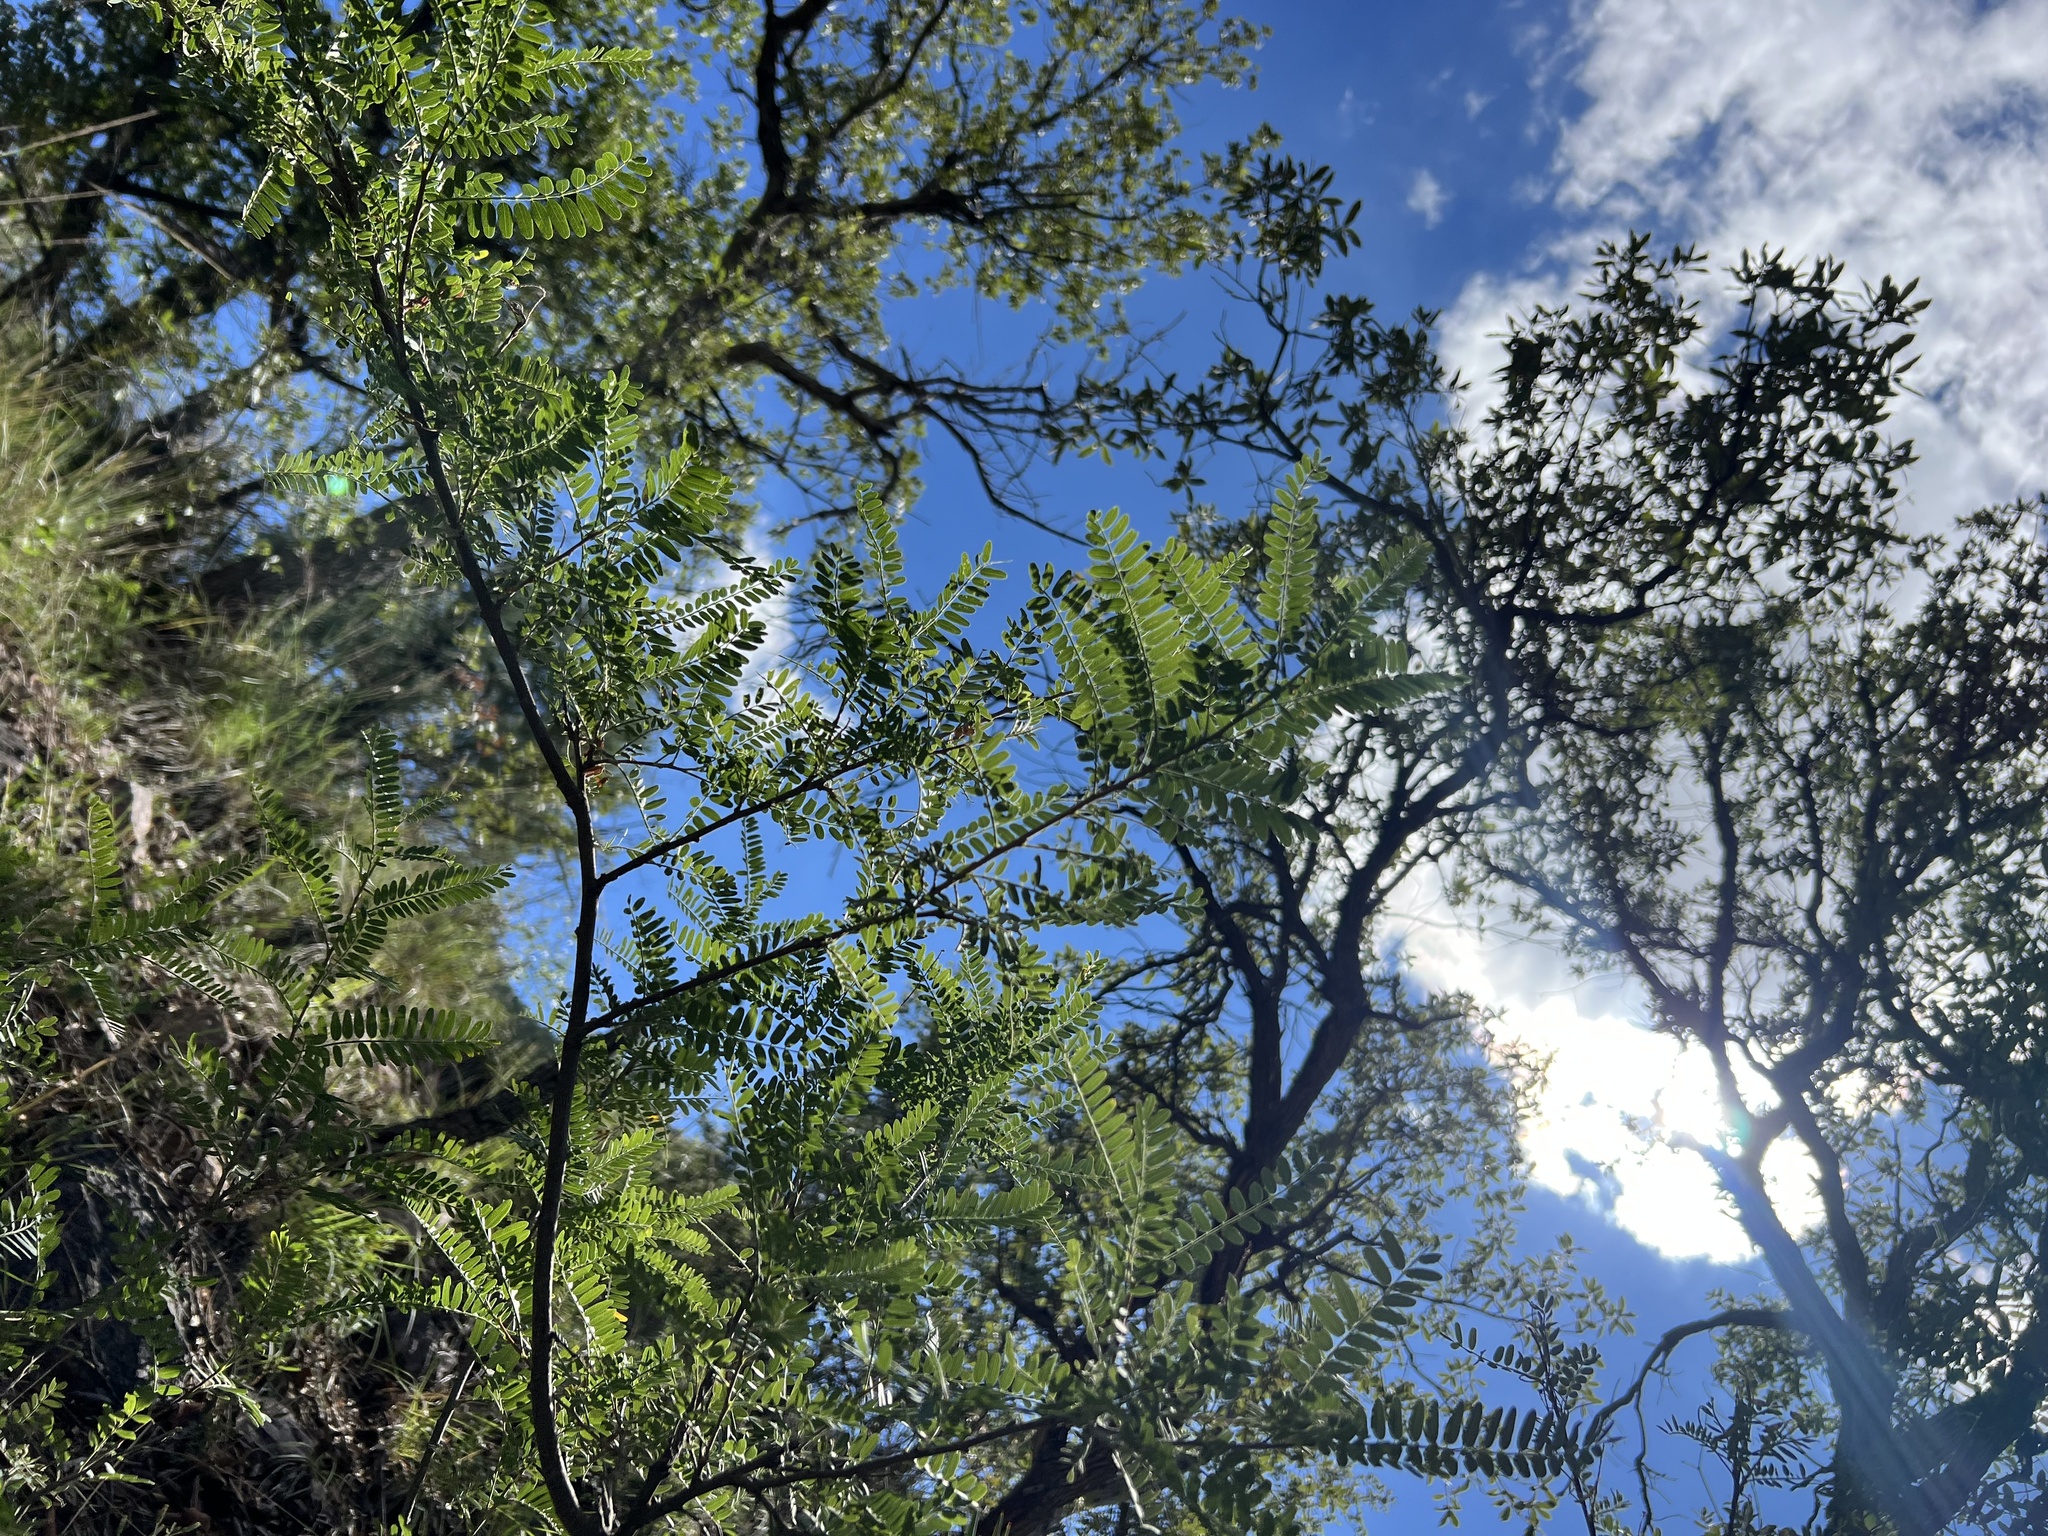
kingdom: Plantae
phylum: Tracheophyta
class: Magnoliopsida
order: Fabales
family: Fabaceae
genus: Eysenhardtia
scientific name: Eysenhardtia orthocarpa
